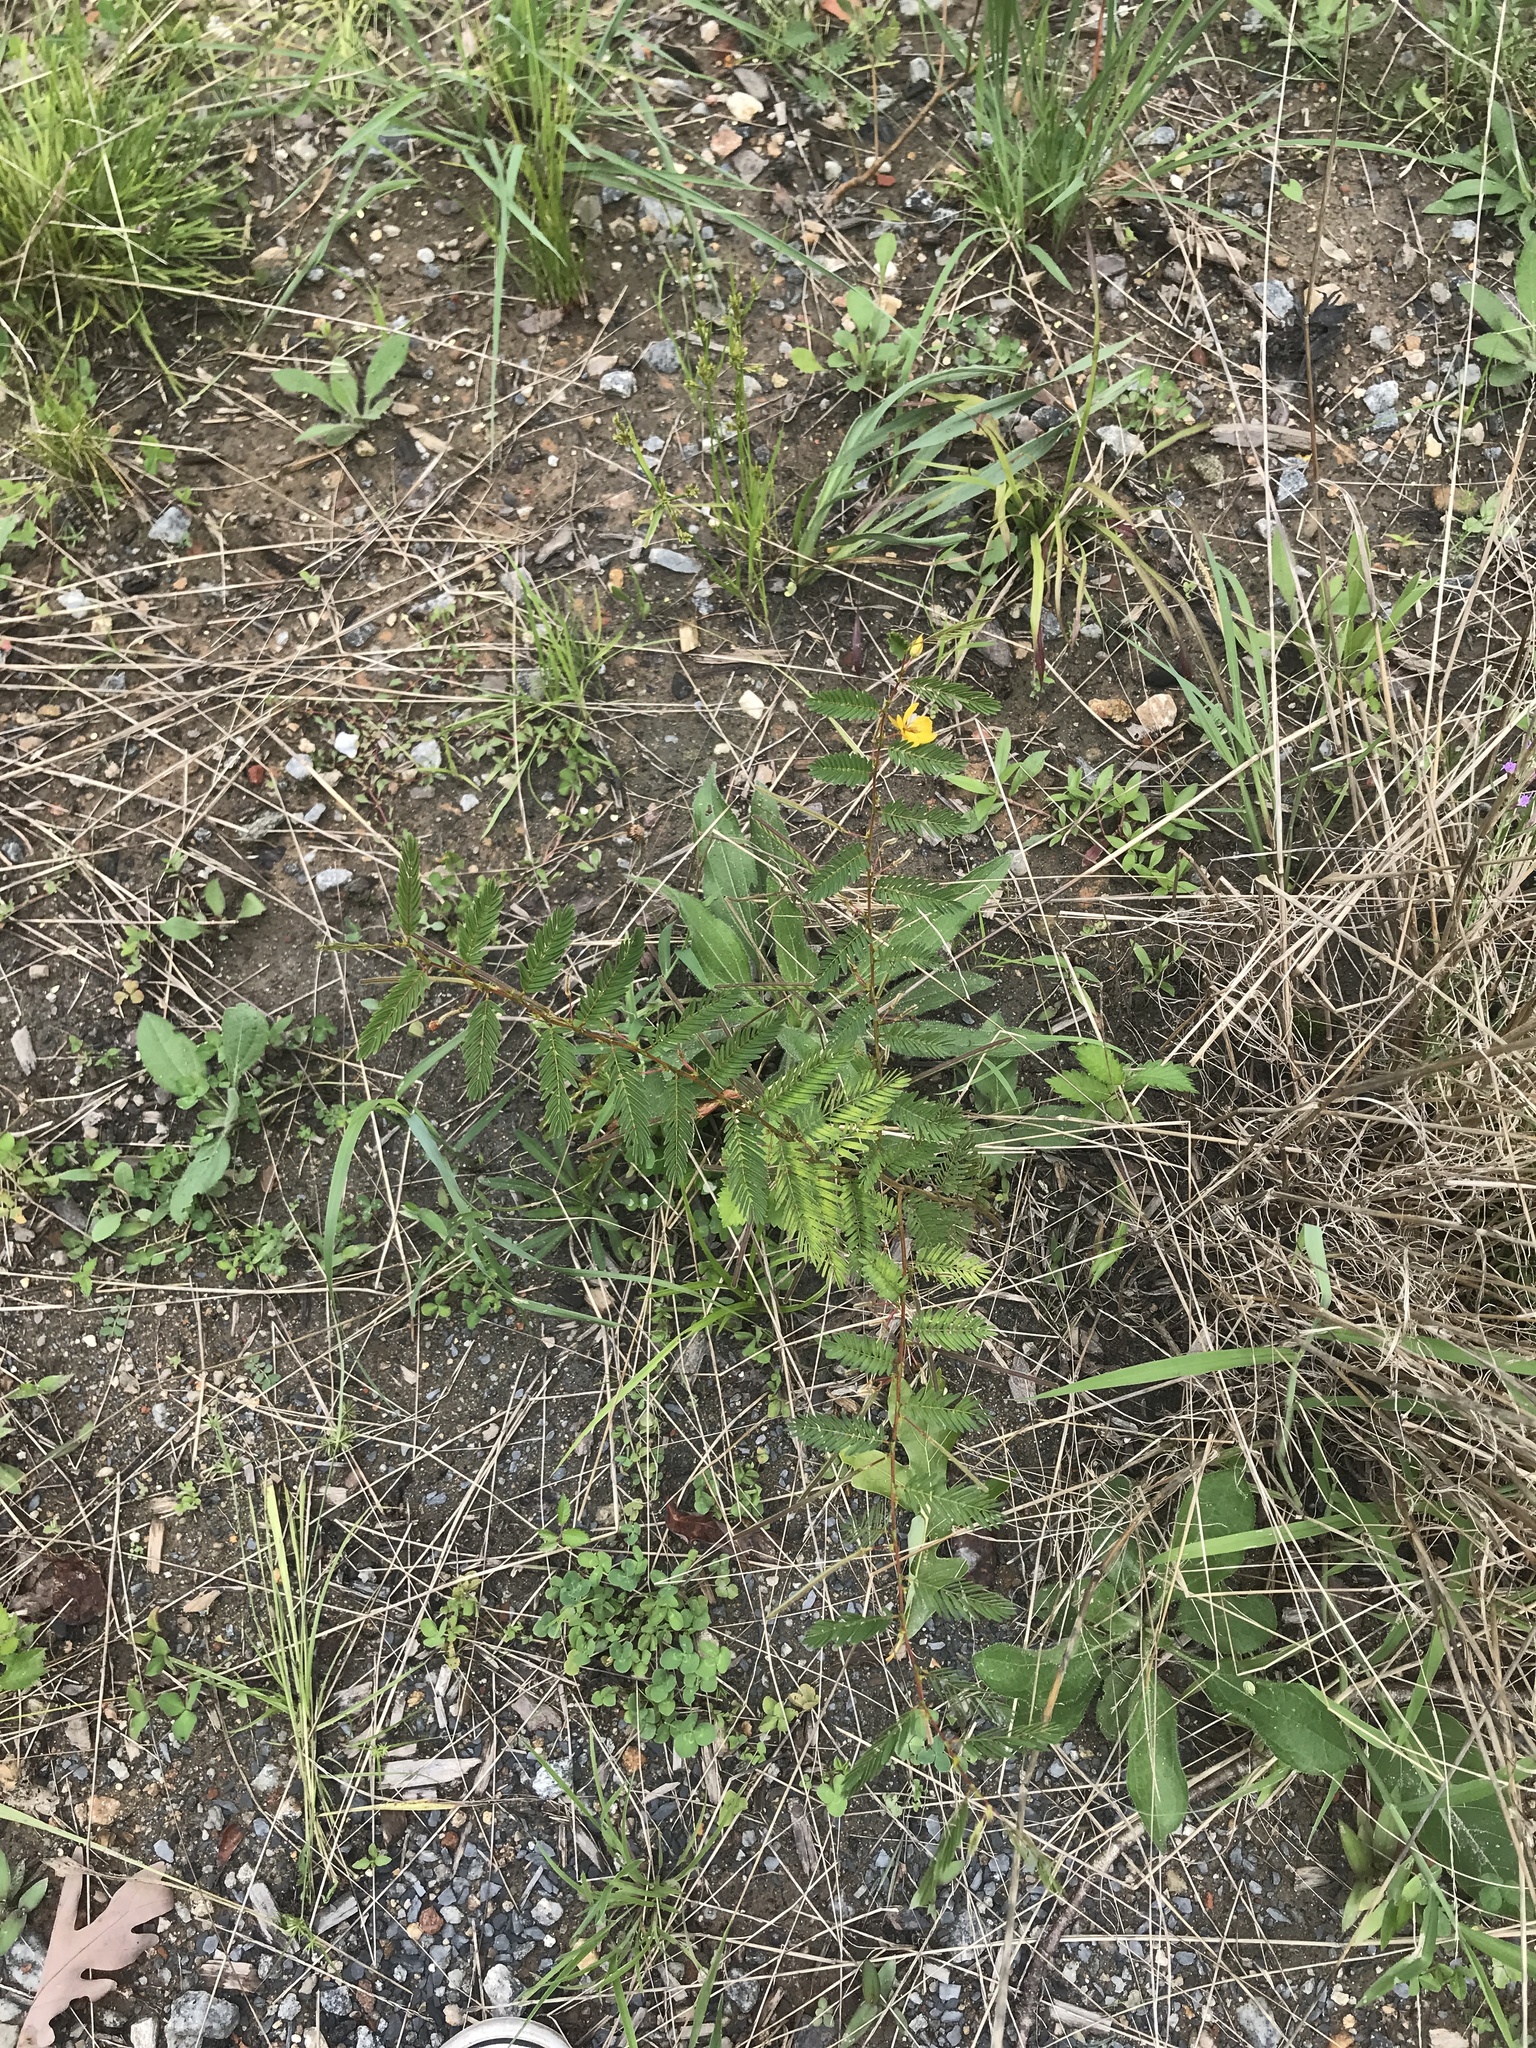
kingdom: Plantae
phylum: Tracheophyta
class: Magnoliopsida
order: Fabales
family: Fabaceae
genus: Chamaecrista
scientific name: Chamaecrista fasciculata
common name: Golden cassia
